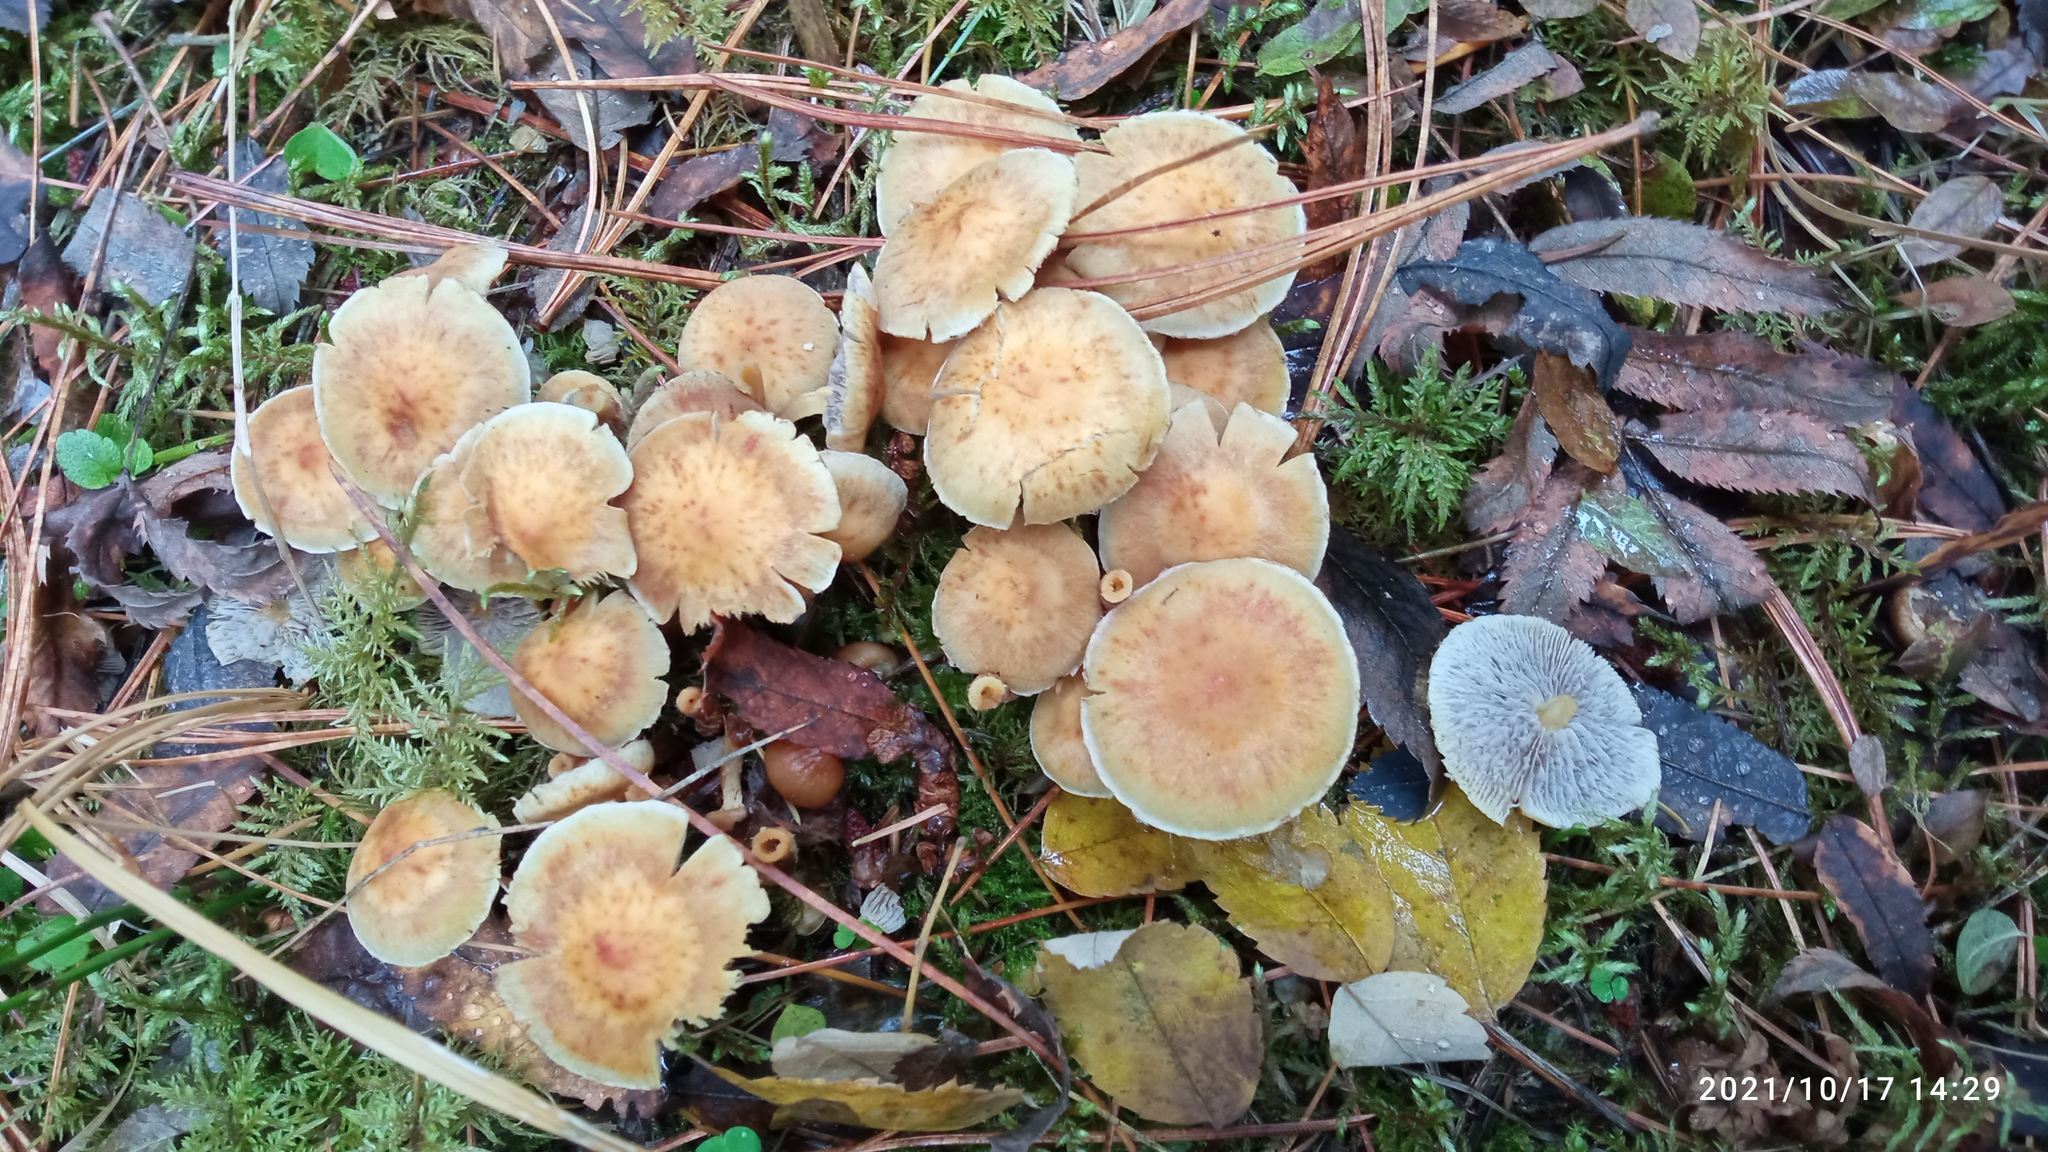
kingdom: Fungi
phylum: Basidiomycota
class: Agaricomycetes
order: Agaricales
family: Strophariaceae
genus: Hypholoma
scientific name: Hypholoma capnoides
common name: Conifer tuft
